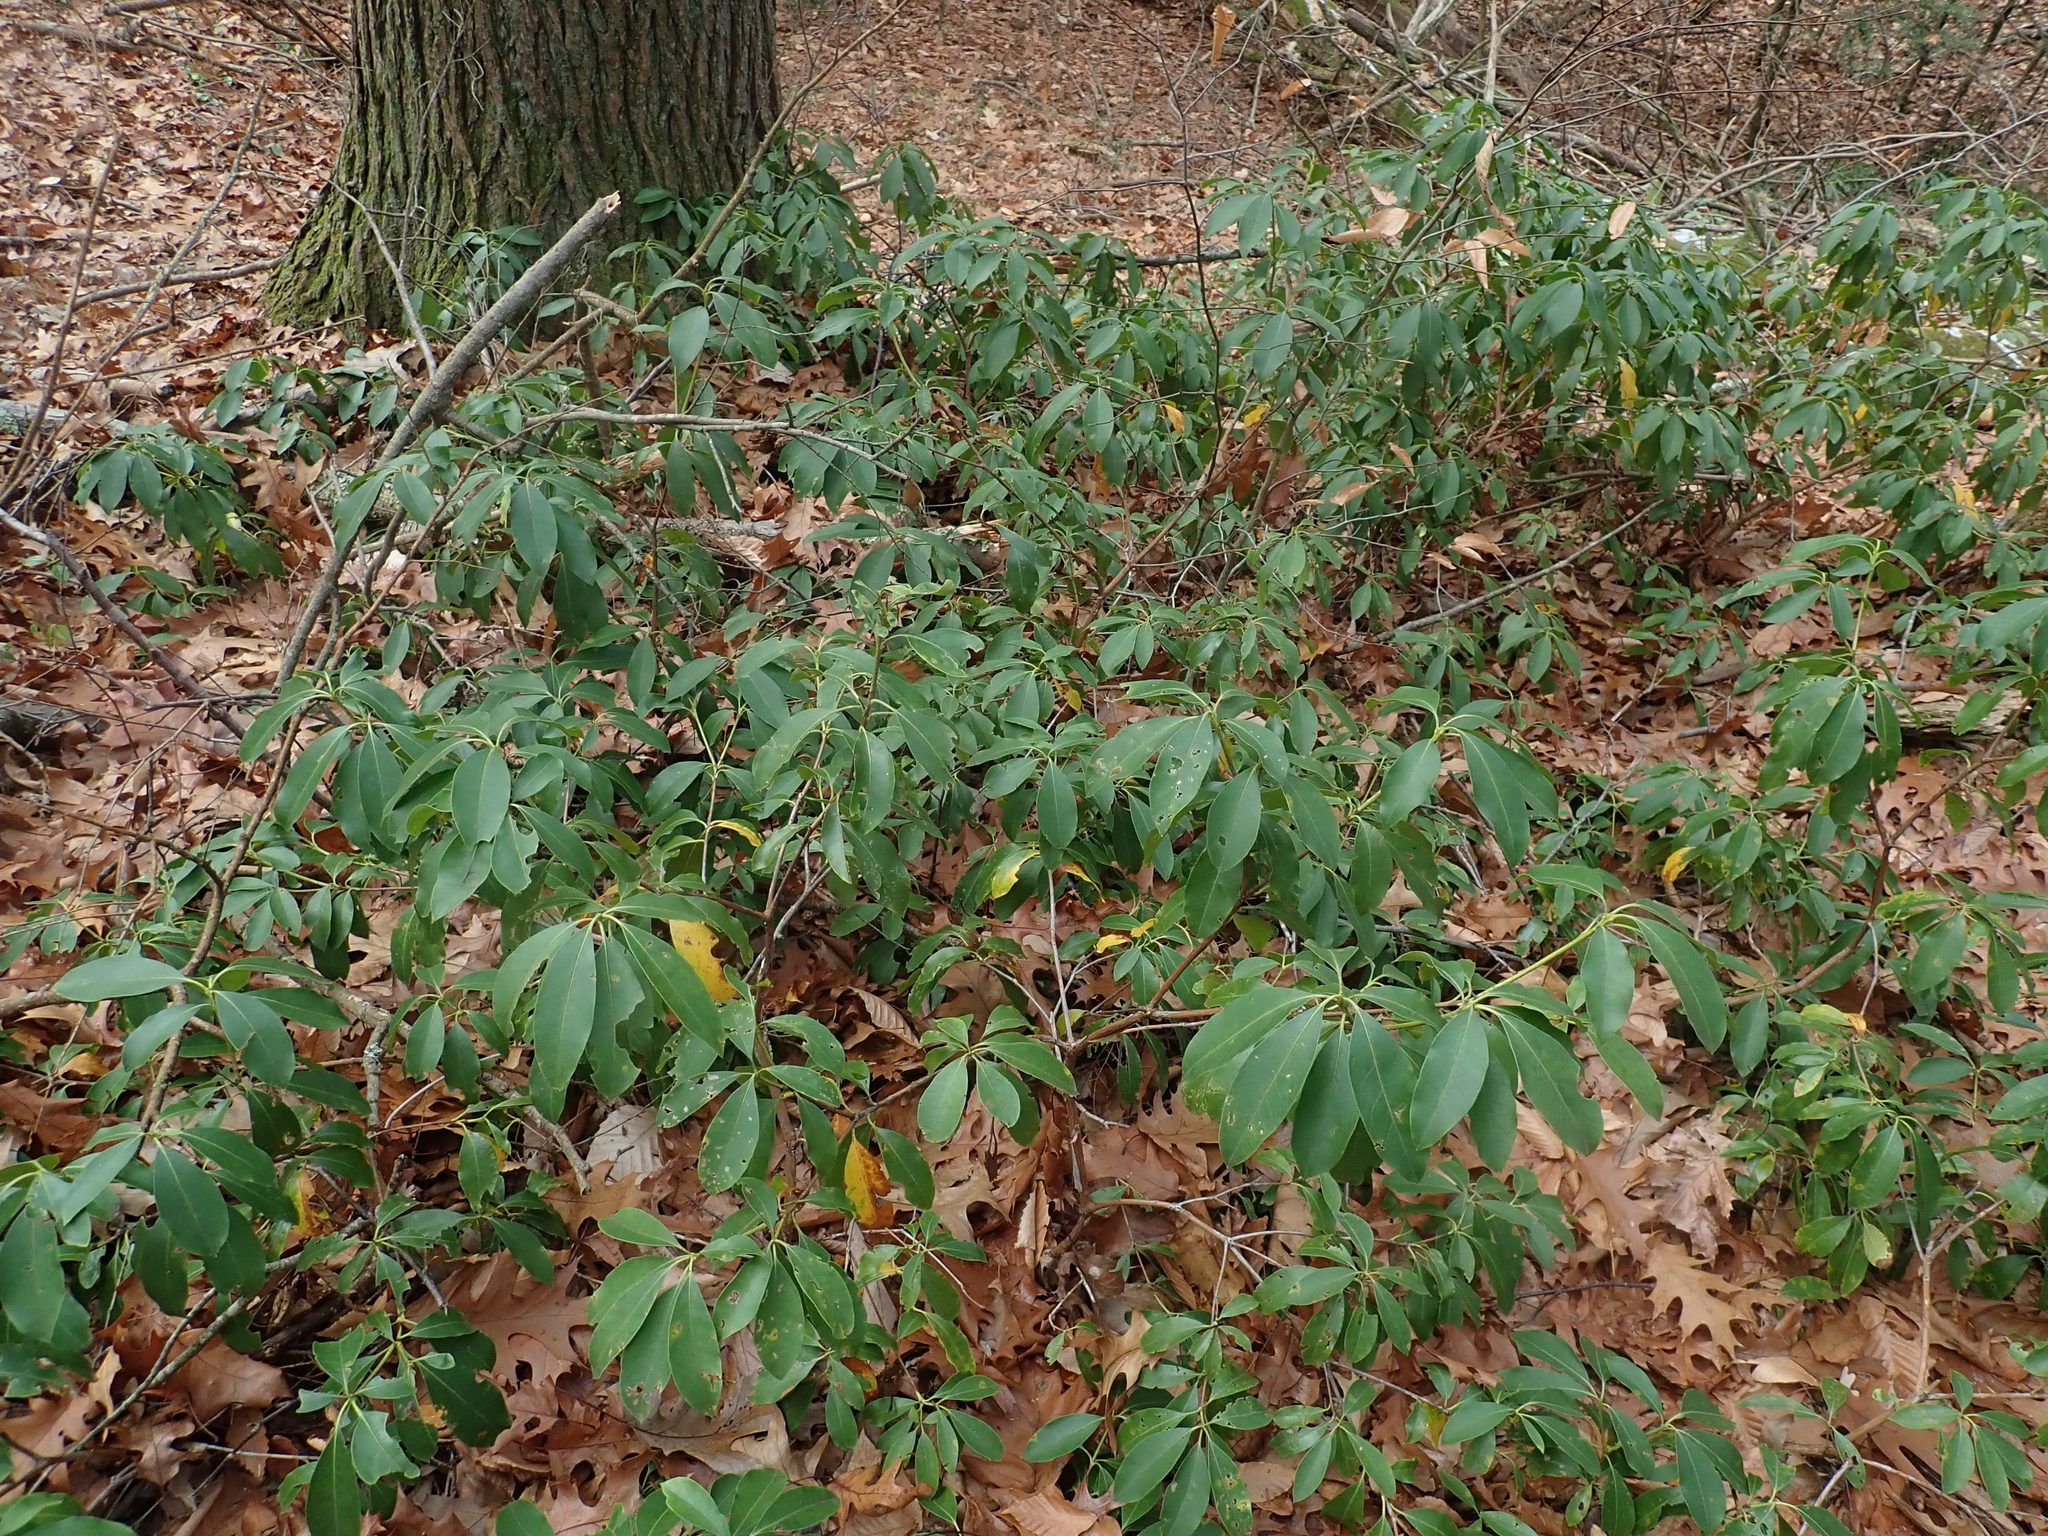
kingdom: Plantae
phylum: Tracheophyta
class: Magnoliopsida
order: Ericales
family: Ericaceae
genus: Kalmia
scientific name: Kalmia latifolia
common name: Mountain-laurel
